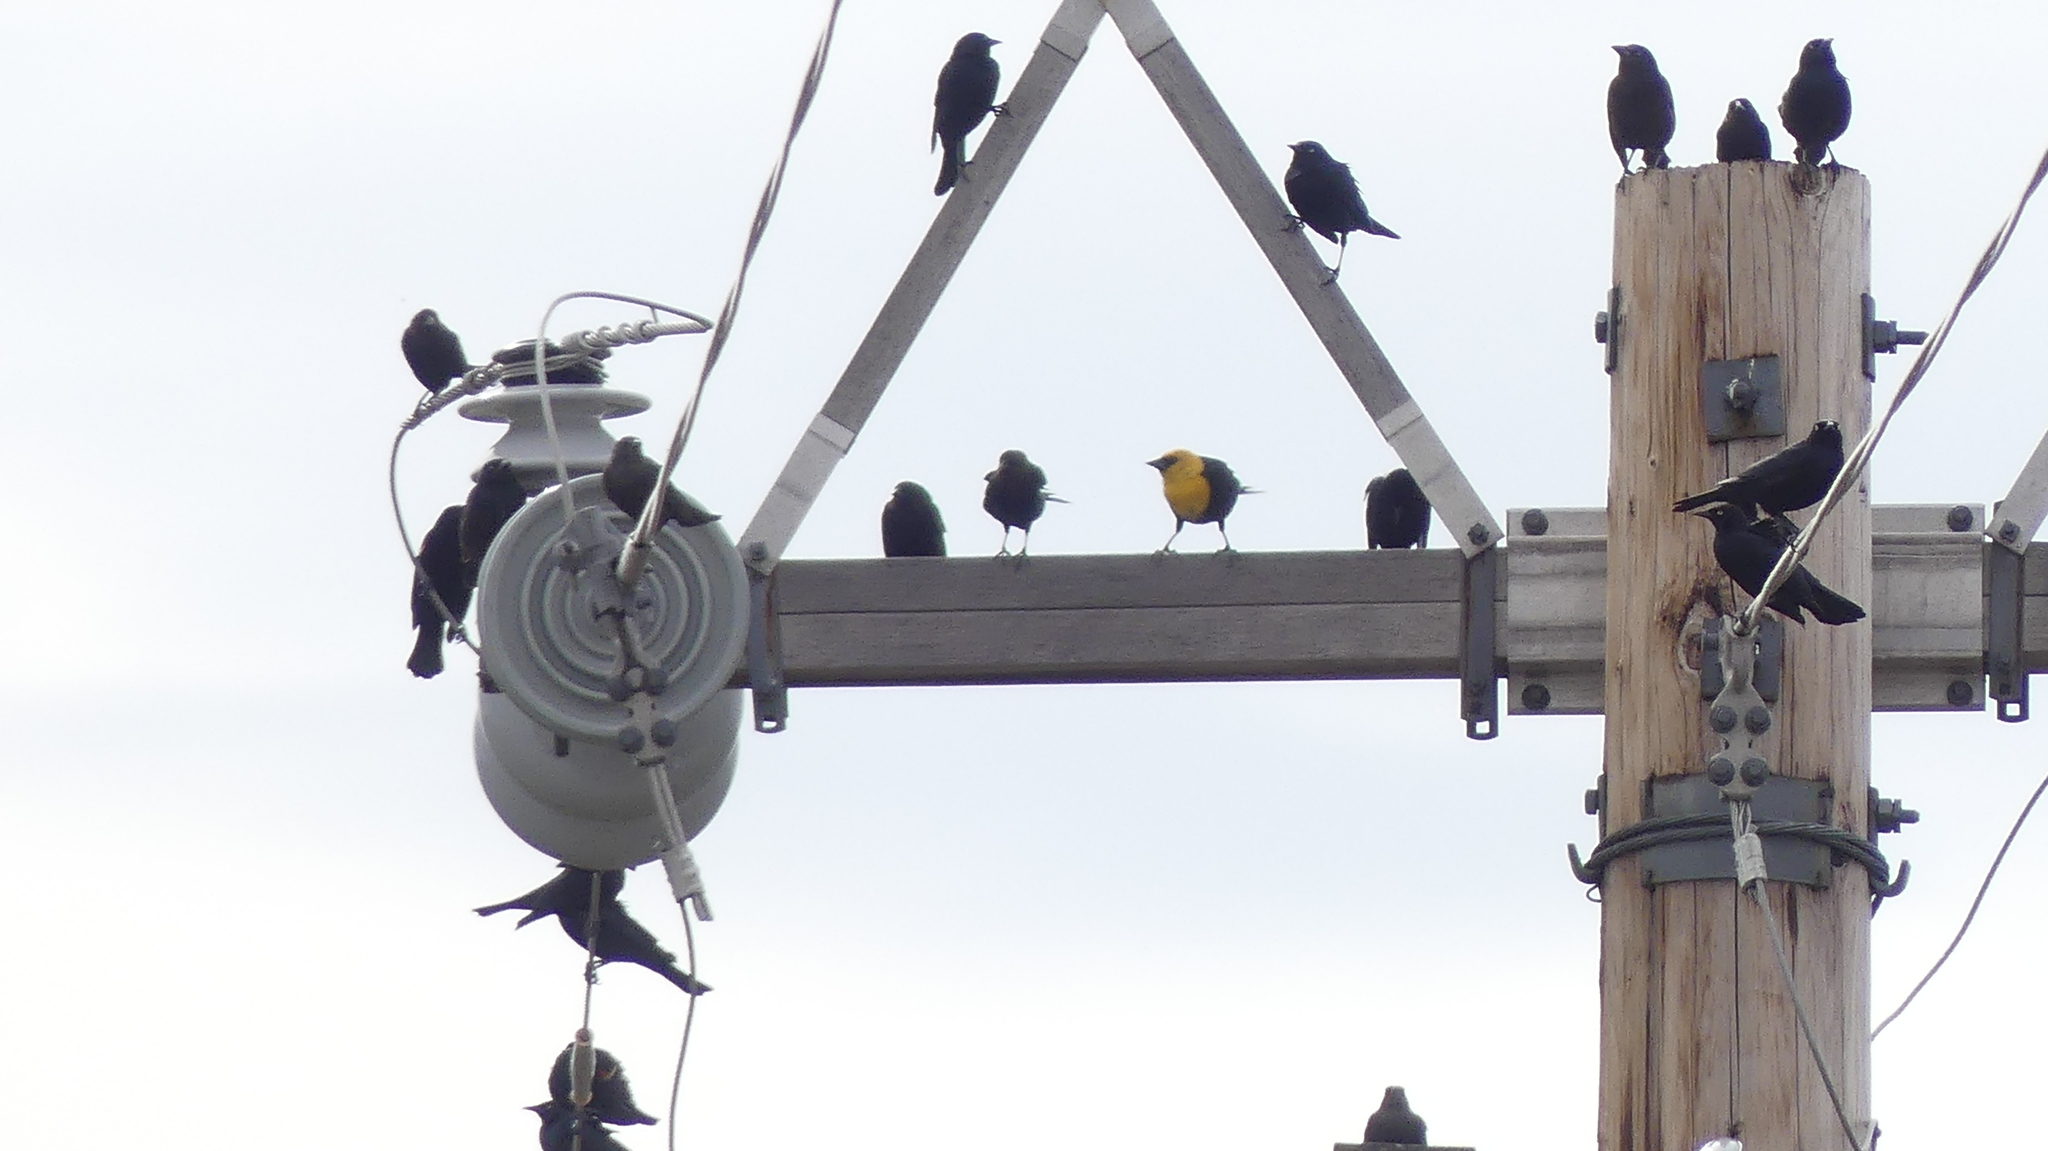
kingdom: Animalia
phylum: Chordata
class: Aves
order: Passeriformes
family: Icteridae
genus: Xanthocephalus
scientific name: Xanthocephalus xanthocephalus
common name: Yellow-headed blackbird
